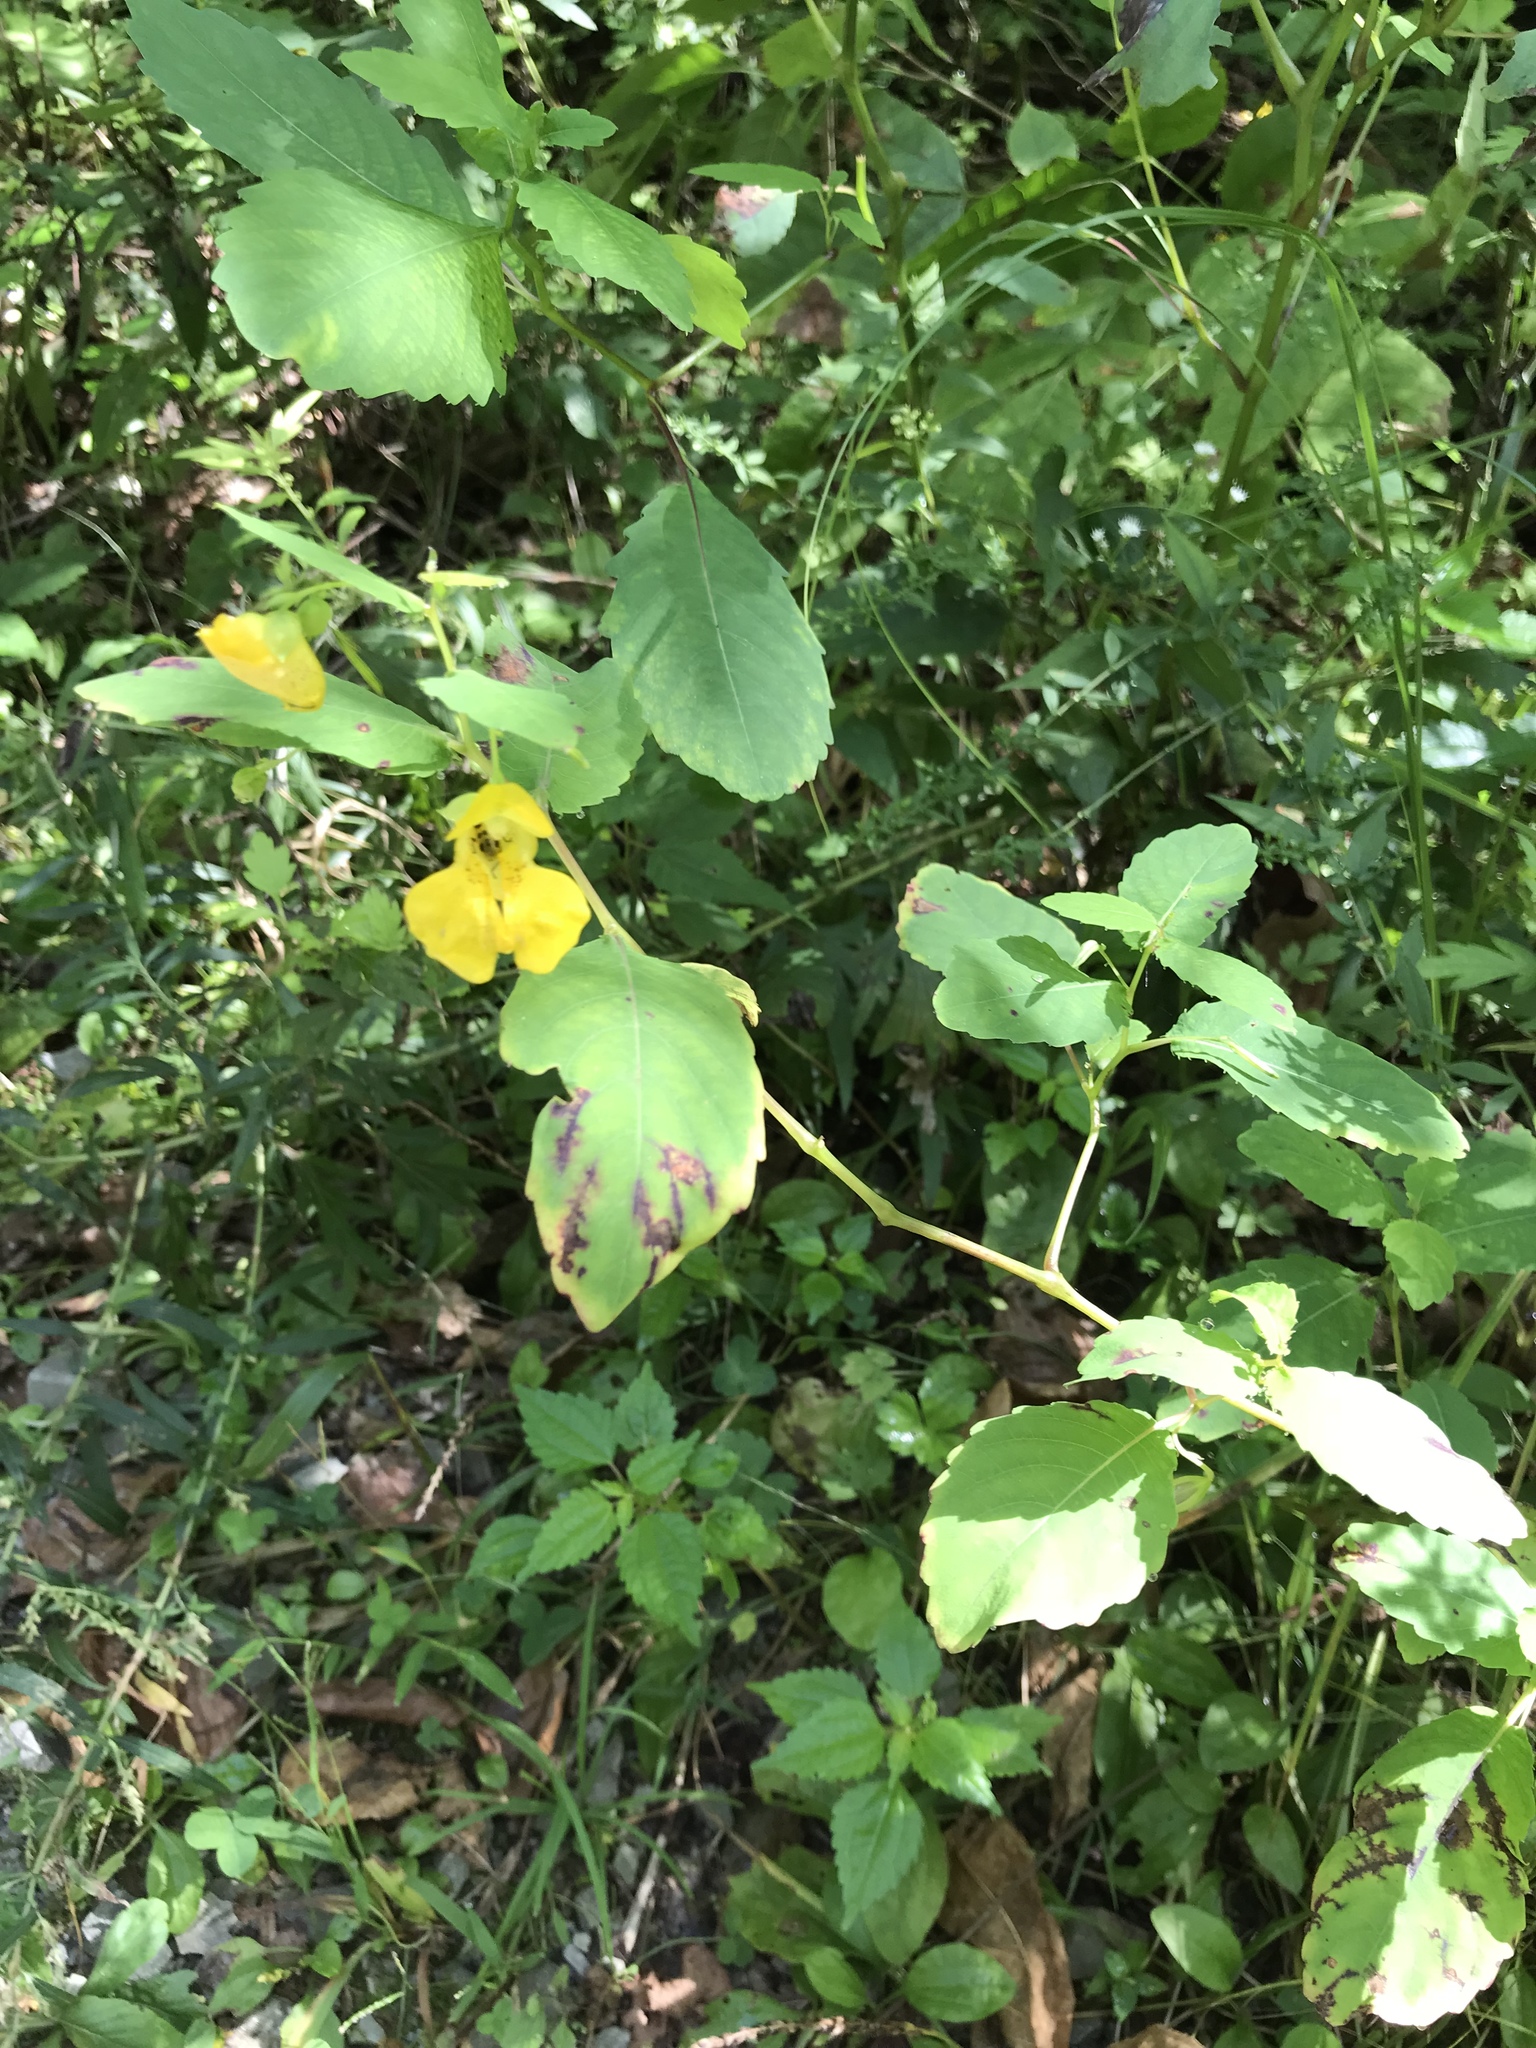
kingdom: Plantae
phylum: Tracheophyta
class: Magnoliopsida
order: Ericales
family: Balsaminaceae
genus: Impatiens
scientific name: Impatiens pallida
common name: Pale snapweed
